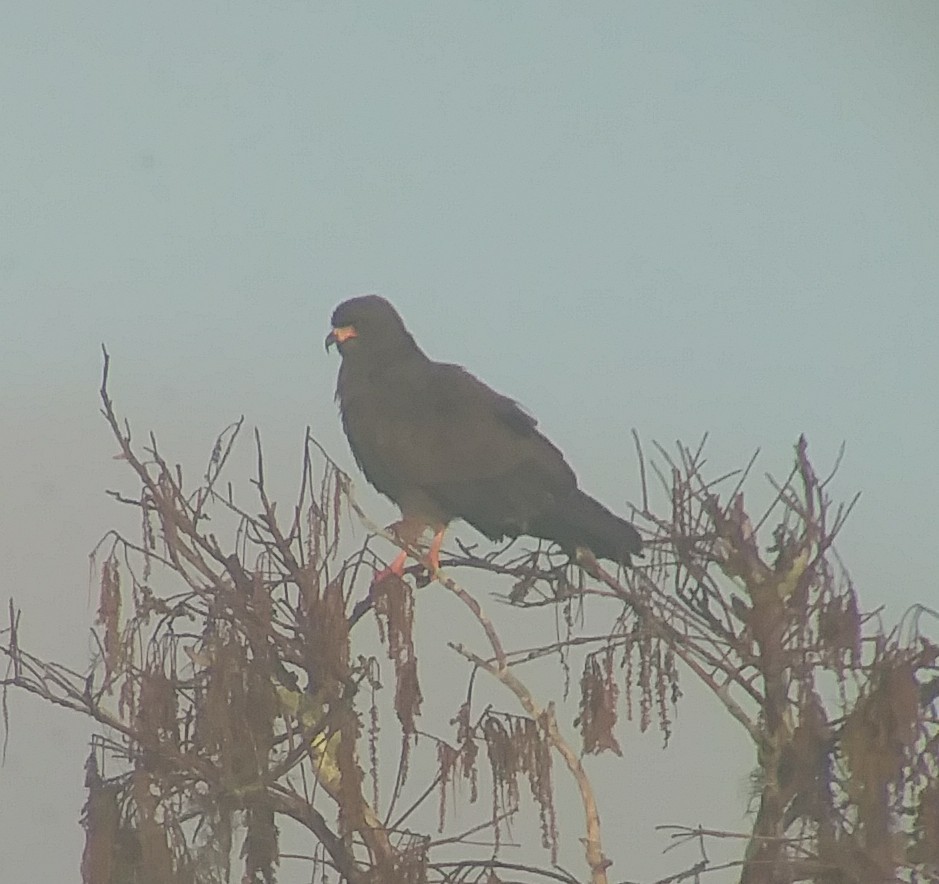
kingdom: Animalia
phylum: Chordata
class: Aves
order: Accipitriformes
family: Accipitridae
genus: Rostrhamus
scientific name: Rostrhamus sociabilis
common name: Snail kite
